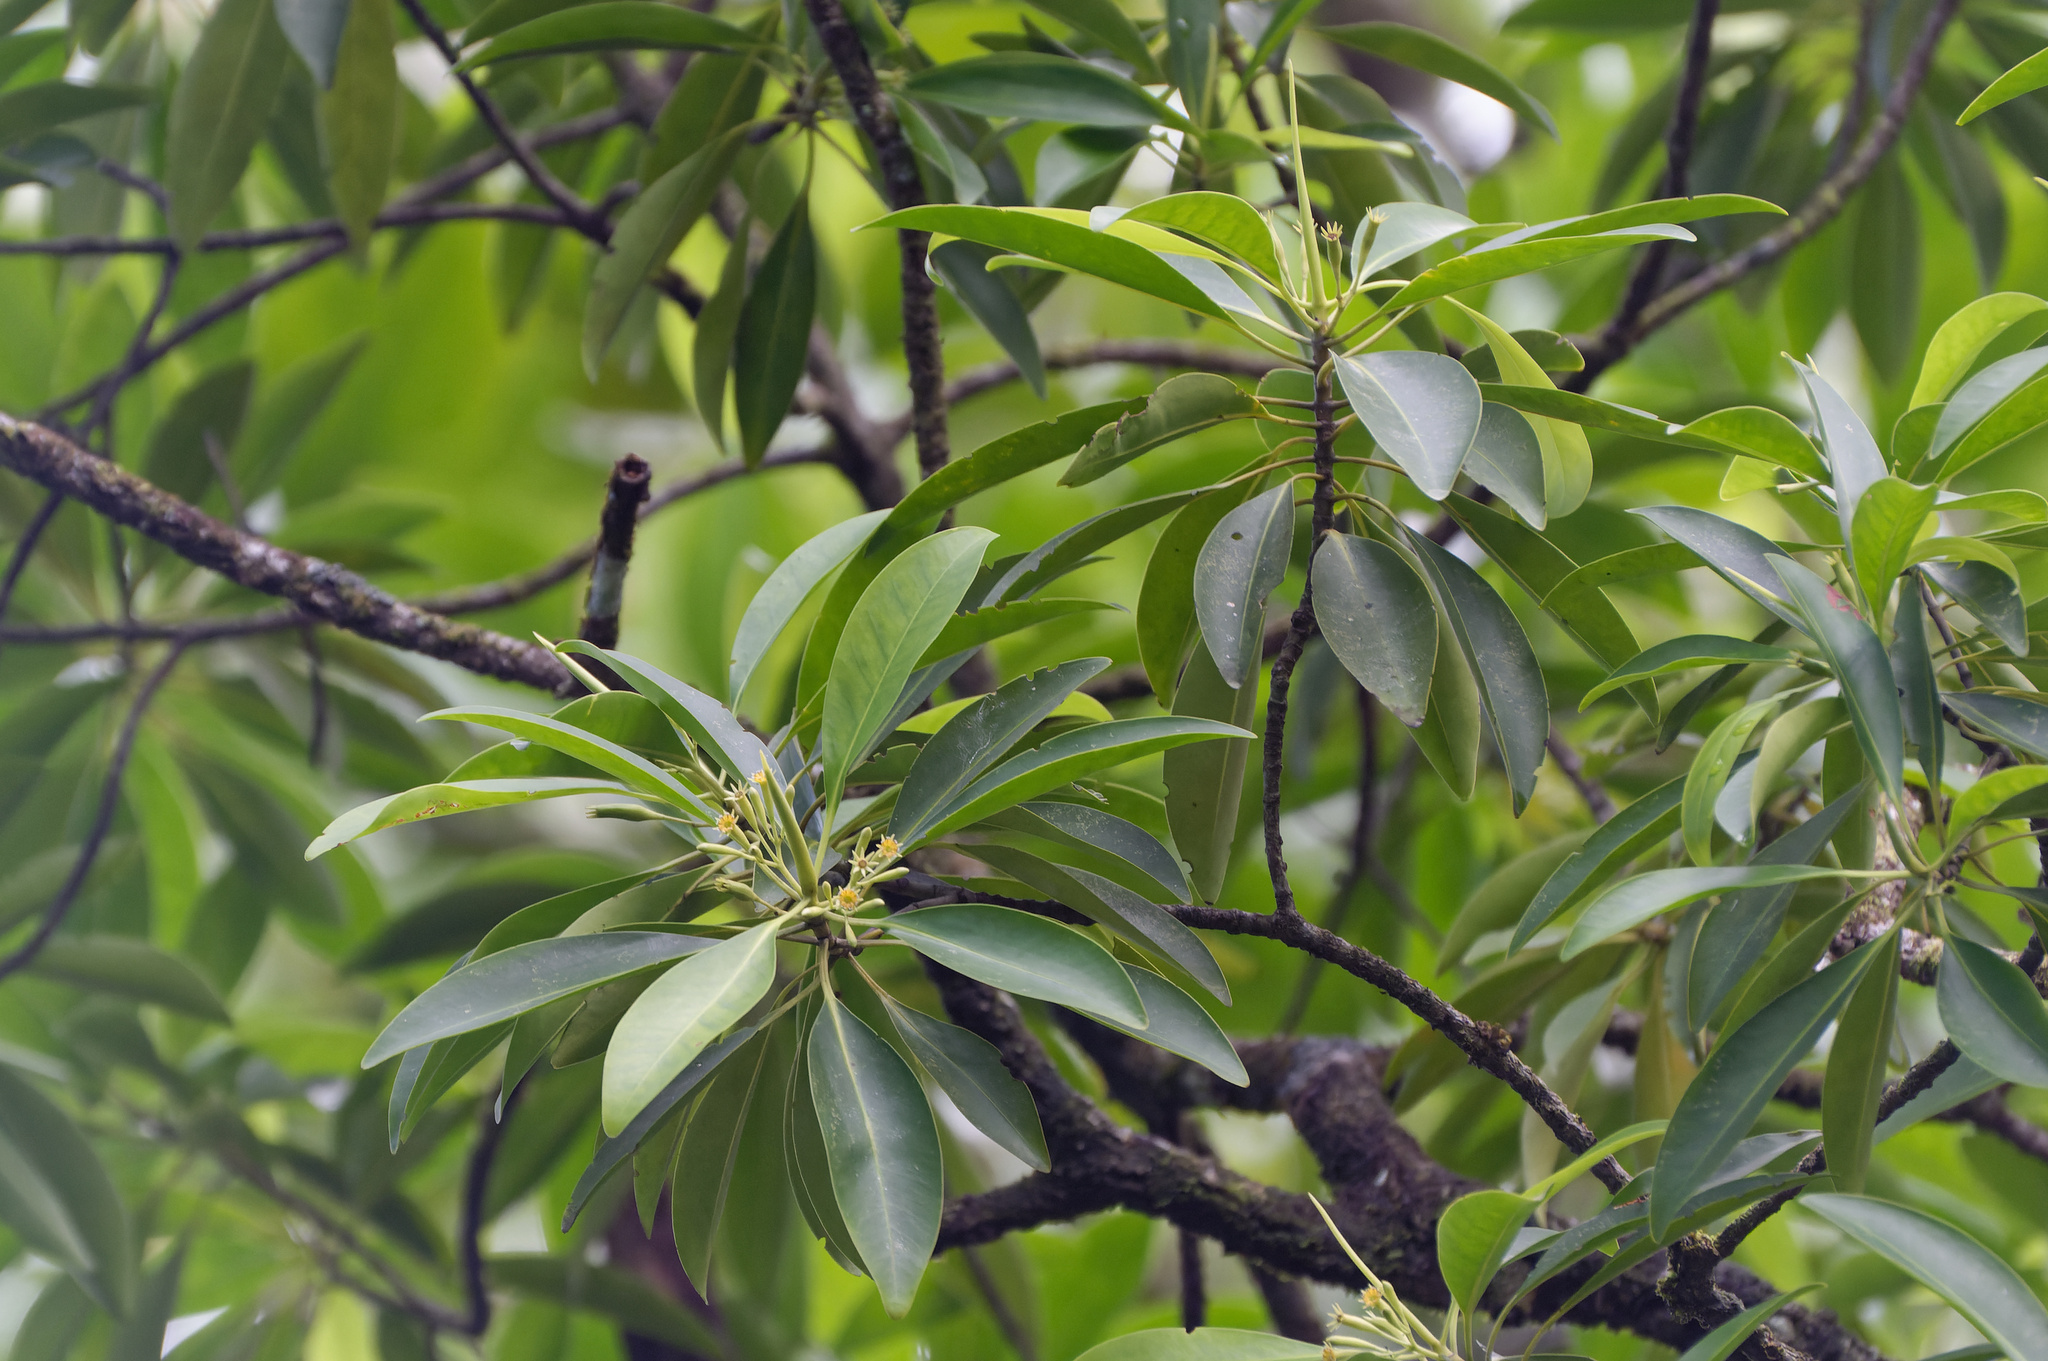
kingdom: Plantae
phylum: Tracheophyta
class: Magnoliopsida
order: Malpighiales
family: Rhizophoraceae
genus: Bruguiera
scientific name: Bruguiera parviflora
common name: Smallflower bruguiera
